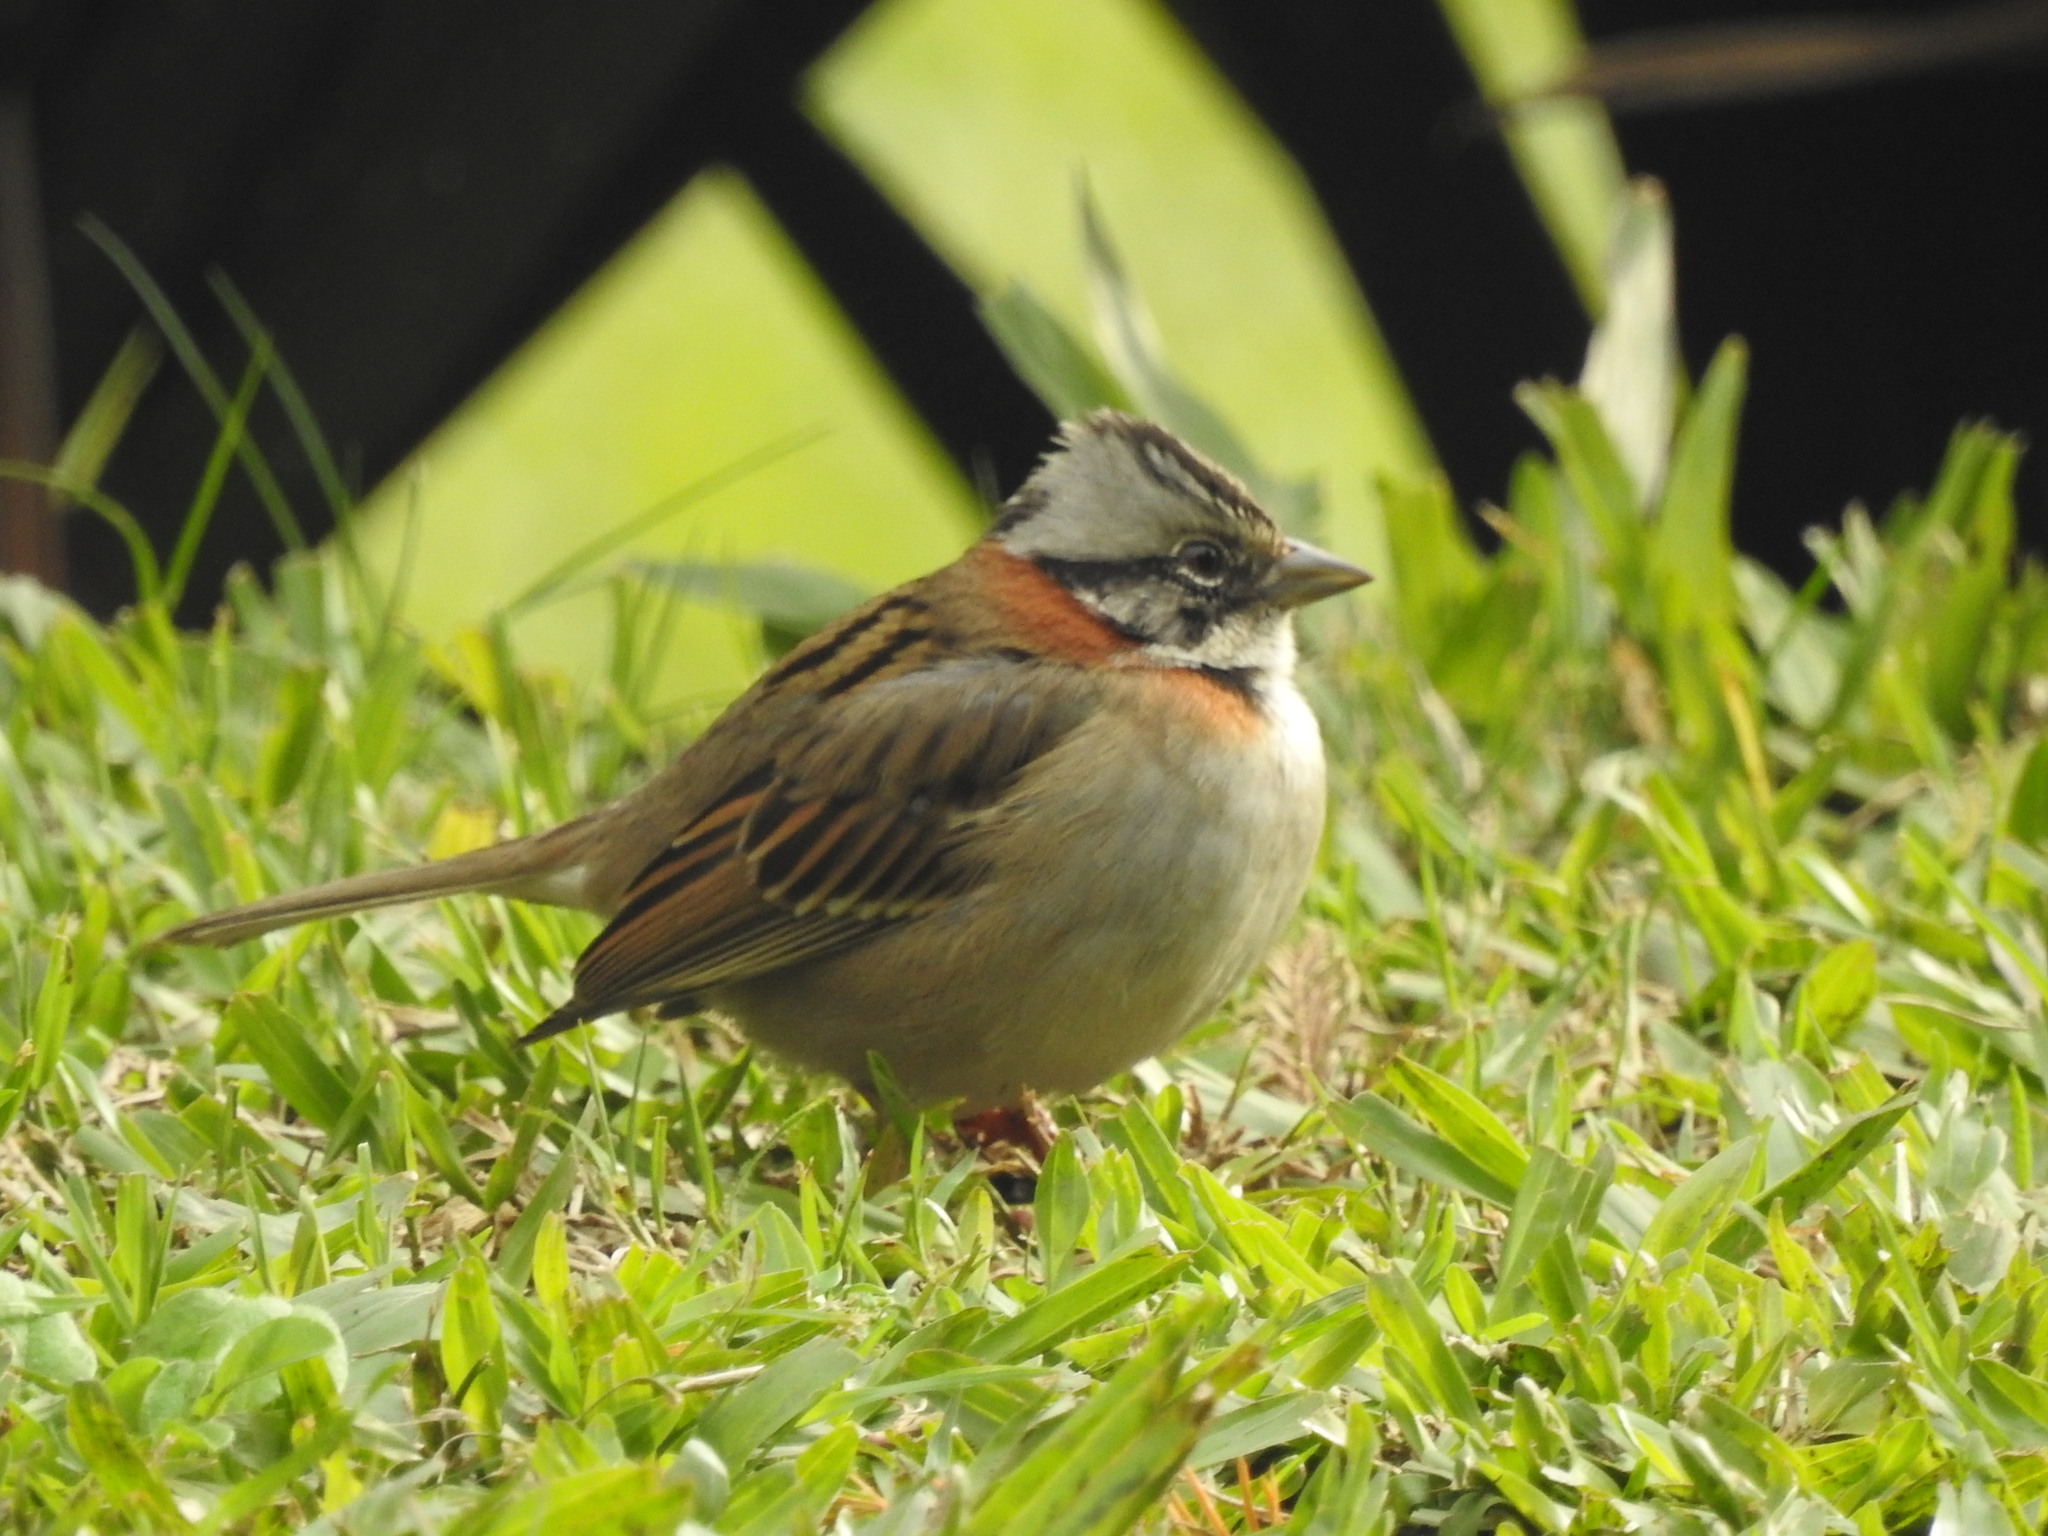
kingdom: Animalia
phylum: Chordata
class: Aves
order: Passeriformes
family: Passerellidae
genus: Zonotrichia
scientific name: Zonotrichia capensis
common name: Rufous-collared sparrow
